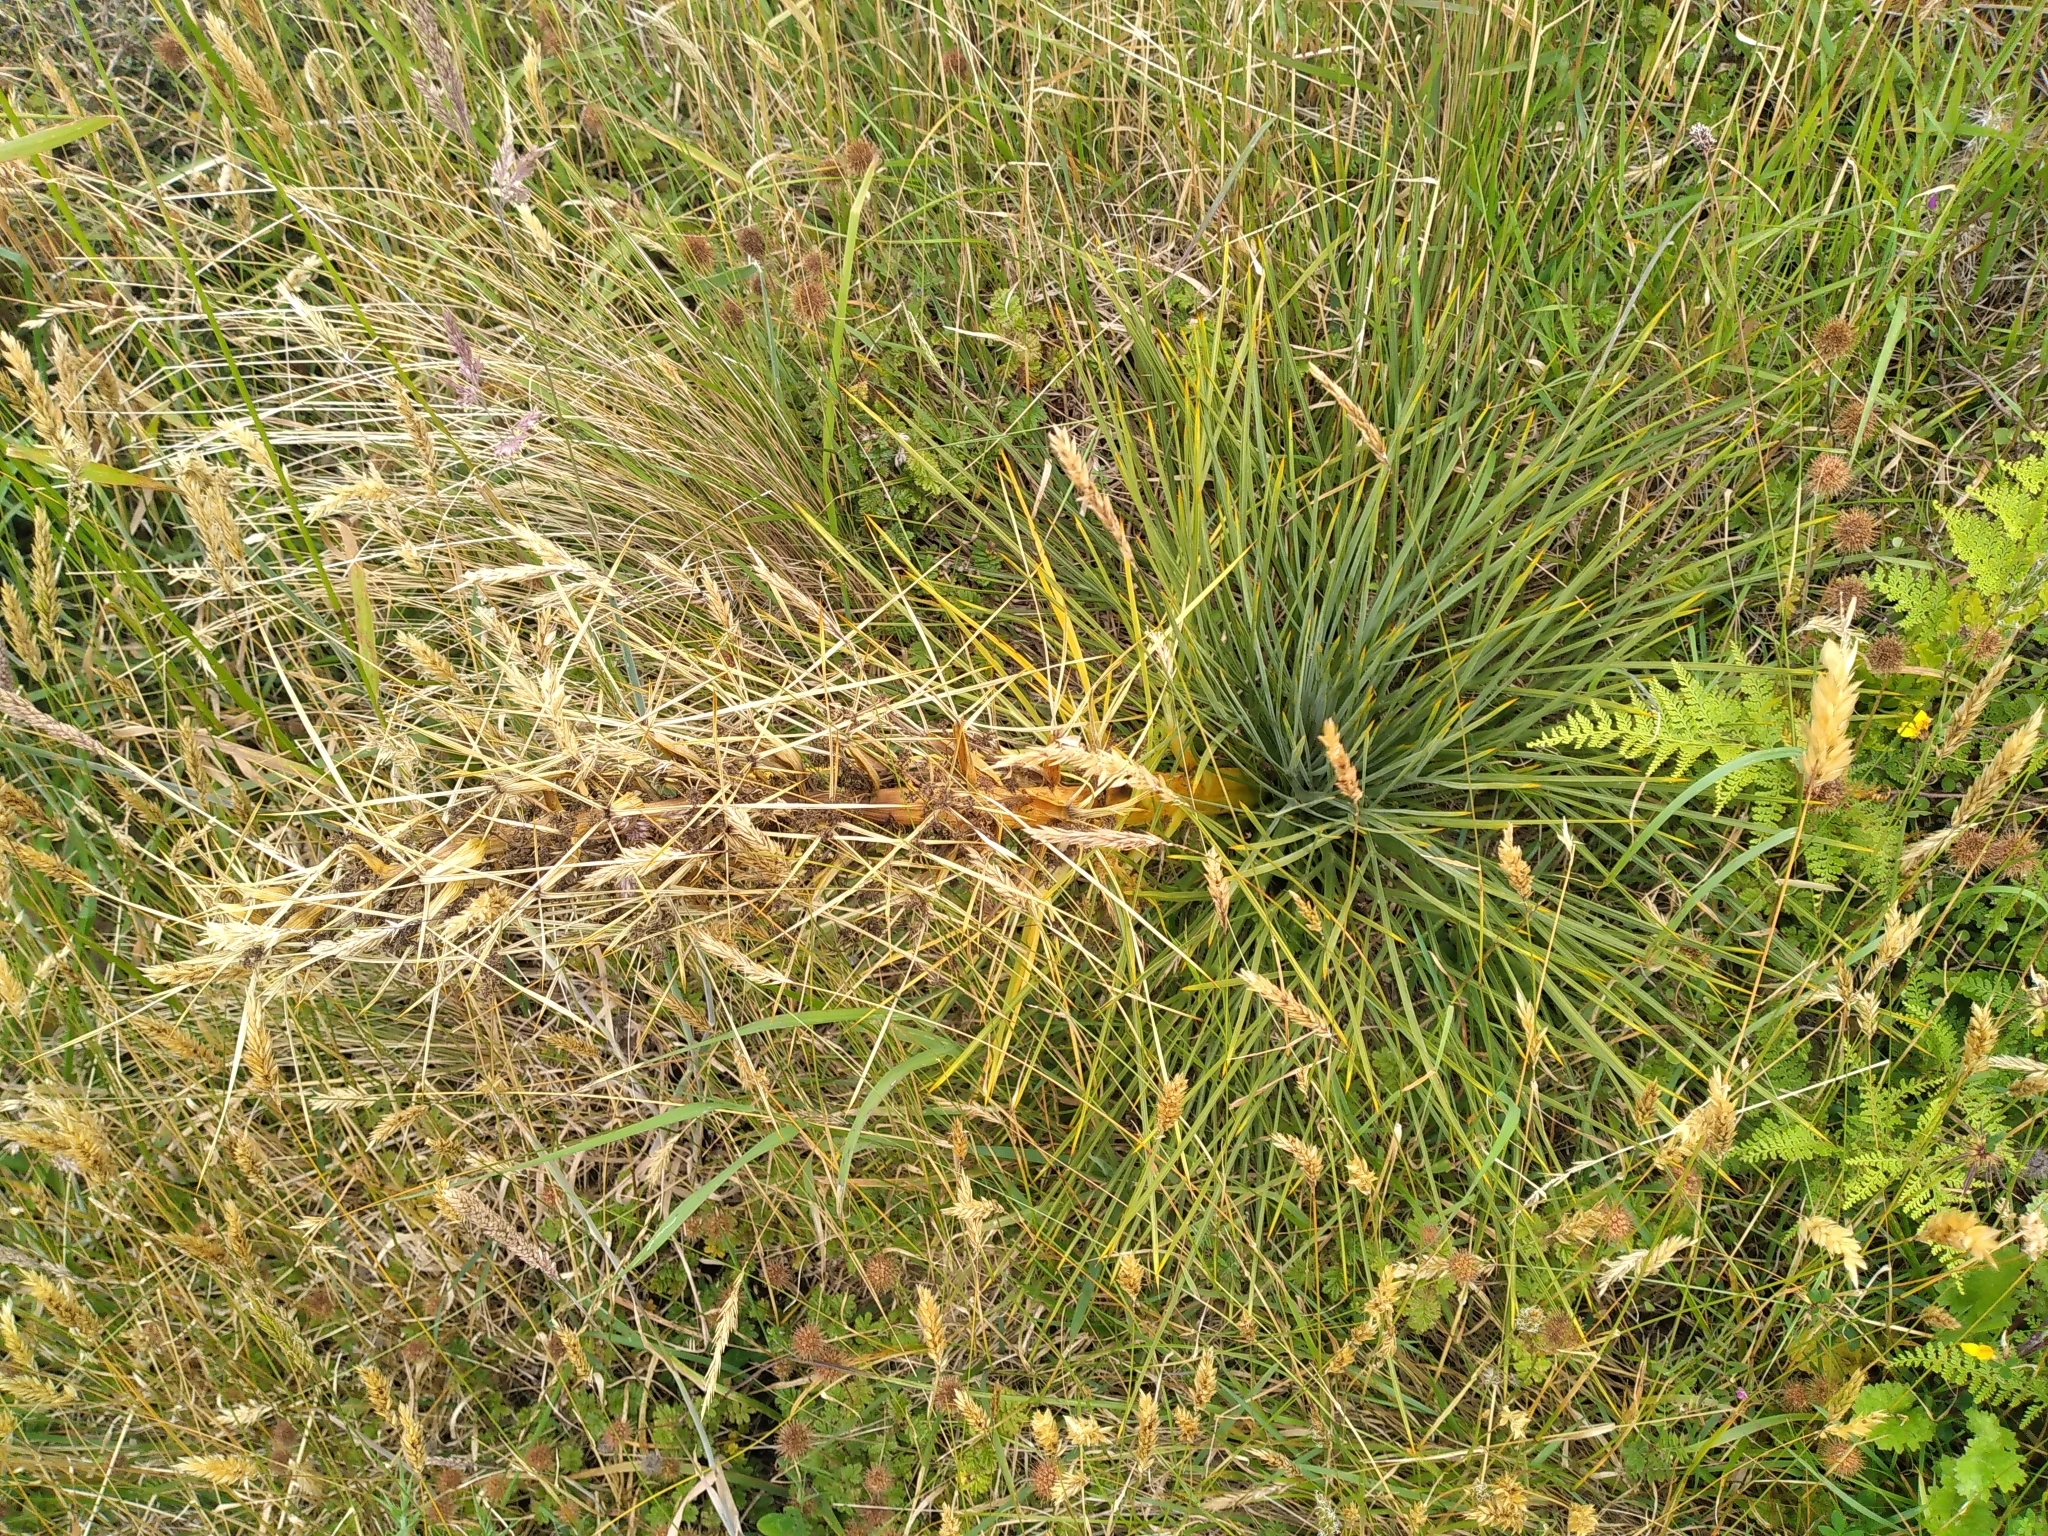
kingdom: Plantae
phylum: Tracheophyta
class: Magnoliopsida
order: Apiales
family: Apiaceae
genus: Aciphylla
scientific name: Aciphylla squarrosa
